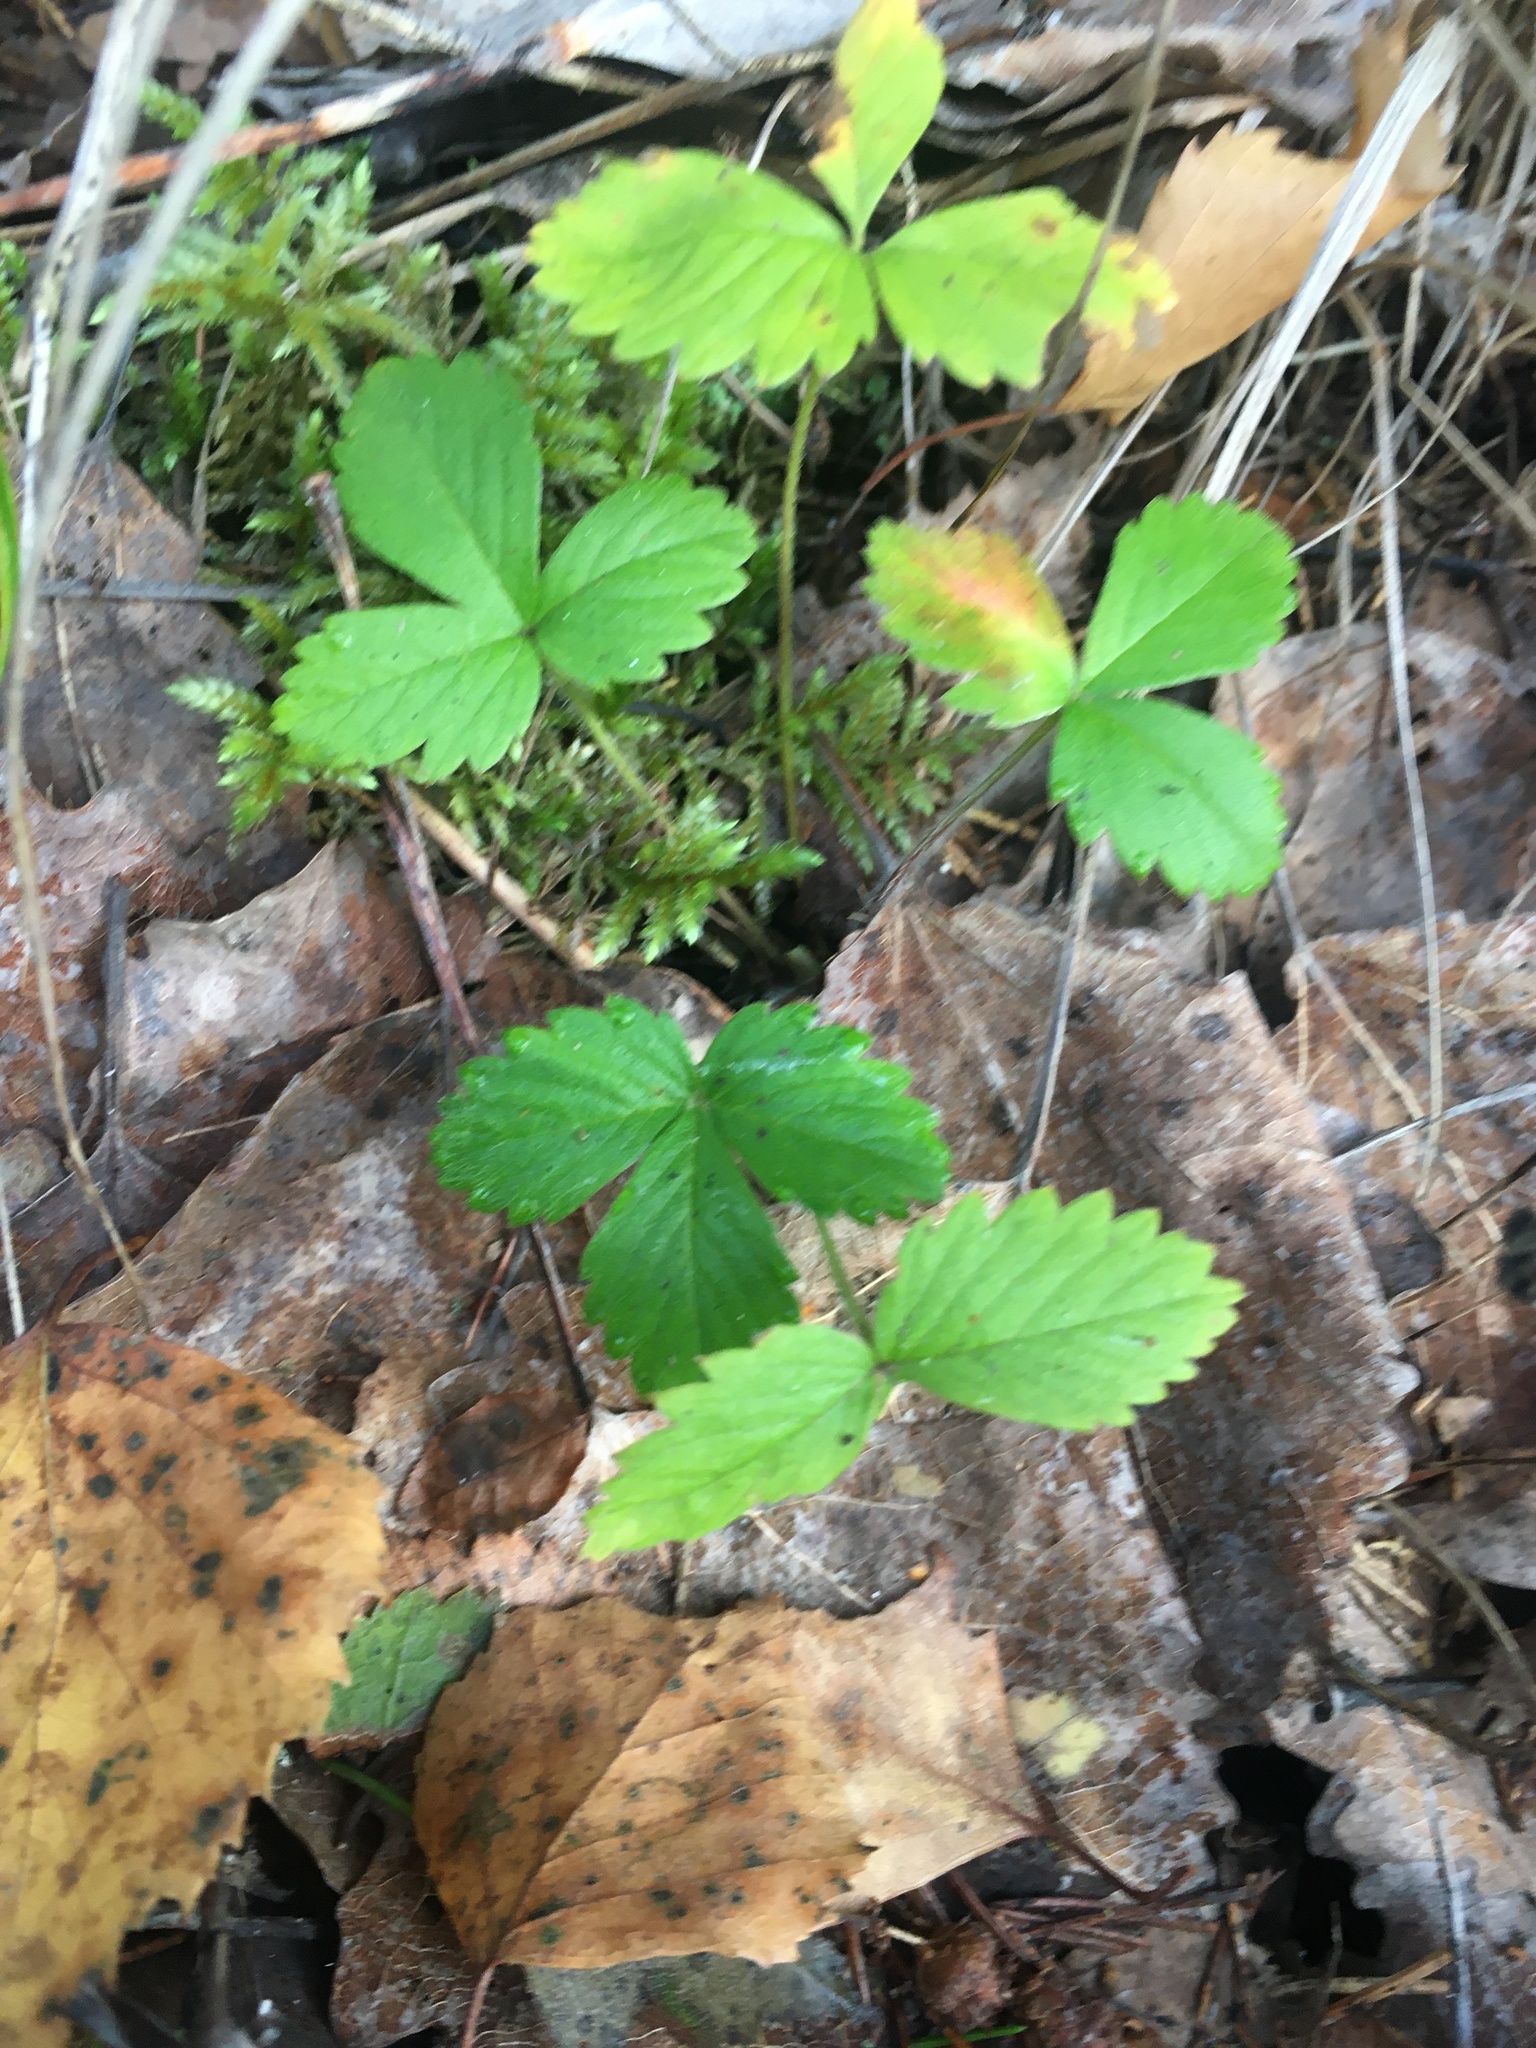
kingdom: Plantae
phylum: Tracheophyta
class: Magnoliopsida
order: Rosales
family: Rosaceae
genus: Fragaria
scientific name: Fragaria vesca
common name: Wild strawberry
